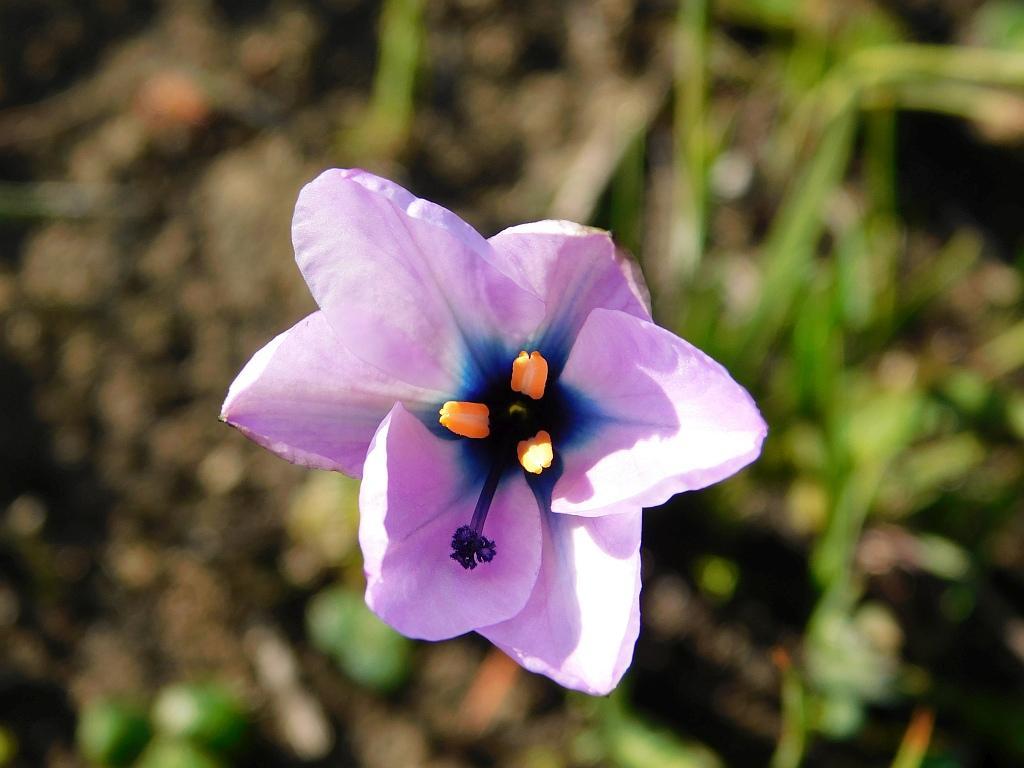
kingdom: Plantae
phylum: Tracheophyta
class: Liliopsida
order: Asparagales
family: Iridaceae
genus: Aristea
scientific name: Aristea cantharophila
